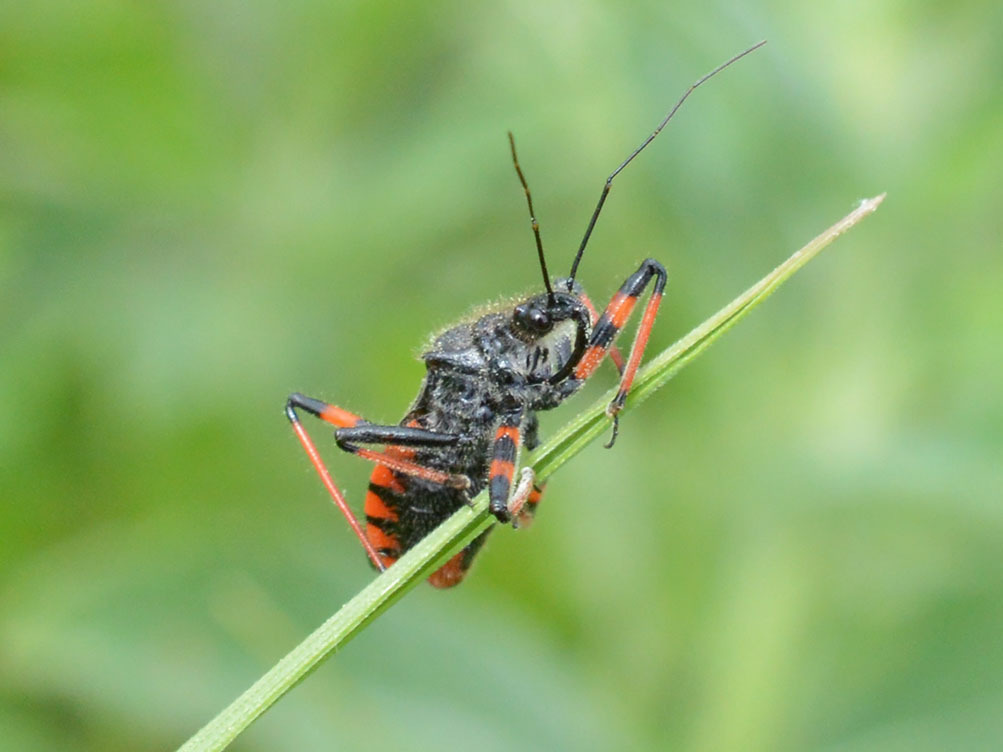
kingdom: Animalia
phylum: Arthropoda
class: Insecta
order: Hemiptera
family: Reduviidae
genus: Rhynocoris
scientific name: Rhynocoris annulatus
